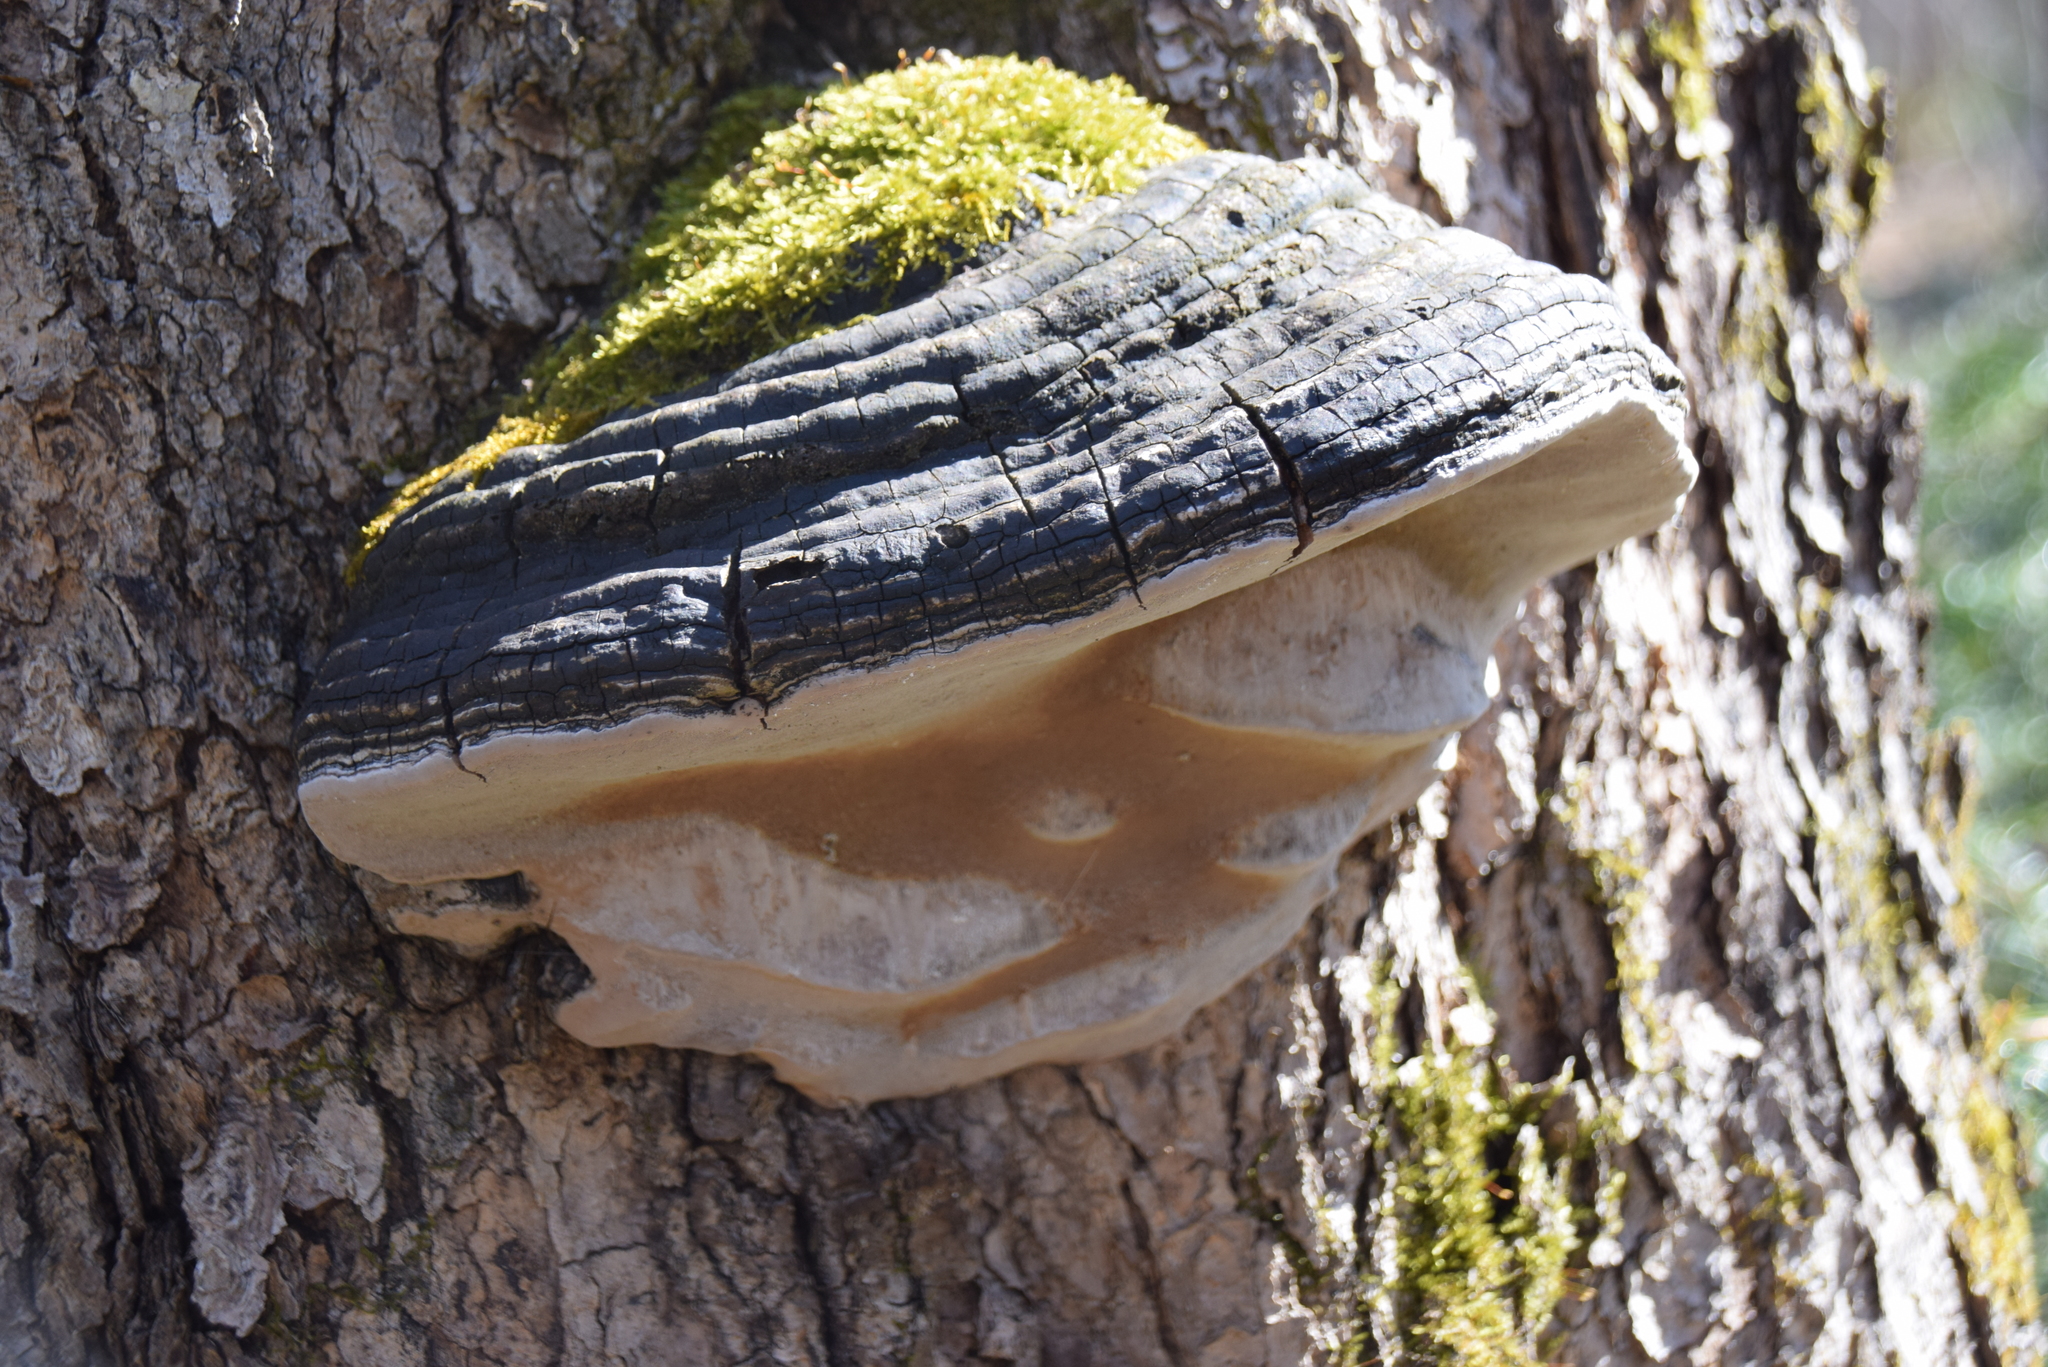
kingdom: Fungi
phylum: Basidiomycota
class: Agaricomycetes
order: Hymenochaetales
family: Hymenochaetaceae
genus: Phellinus
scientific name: Phellinus igniarius
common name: Willow bracket
